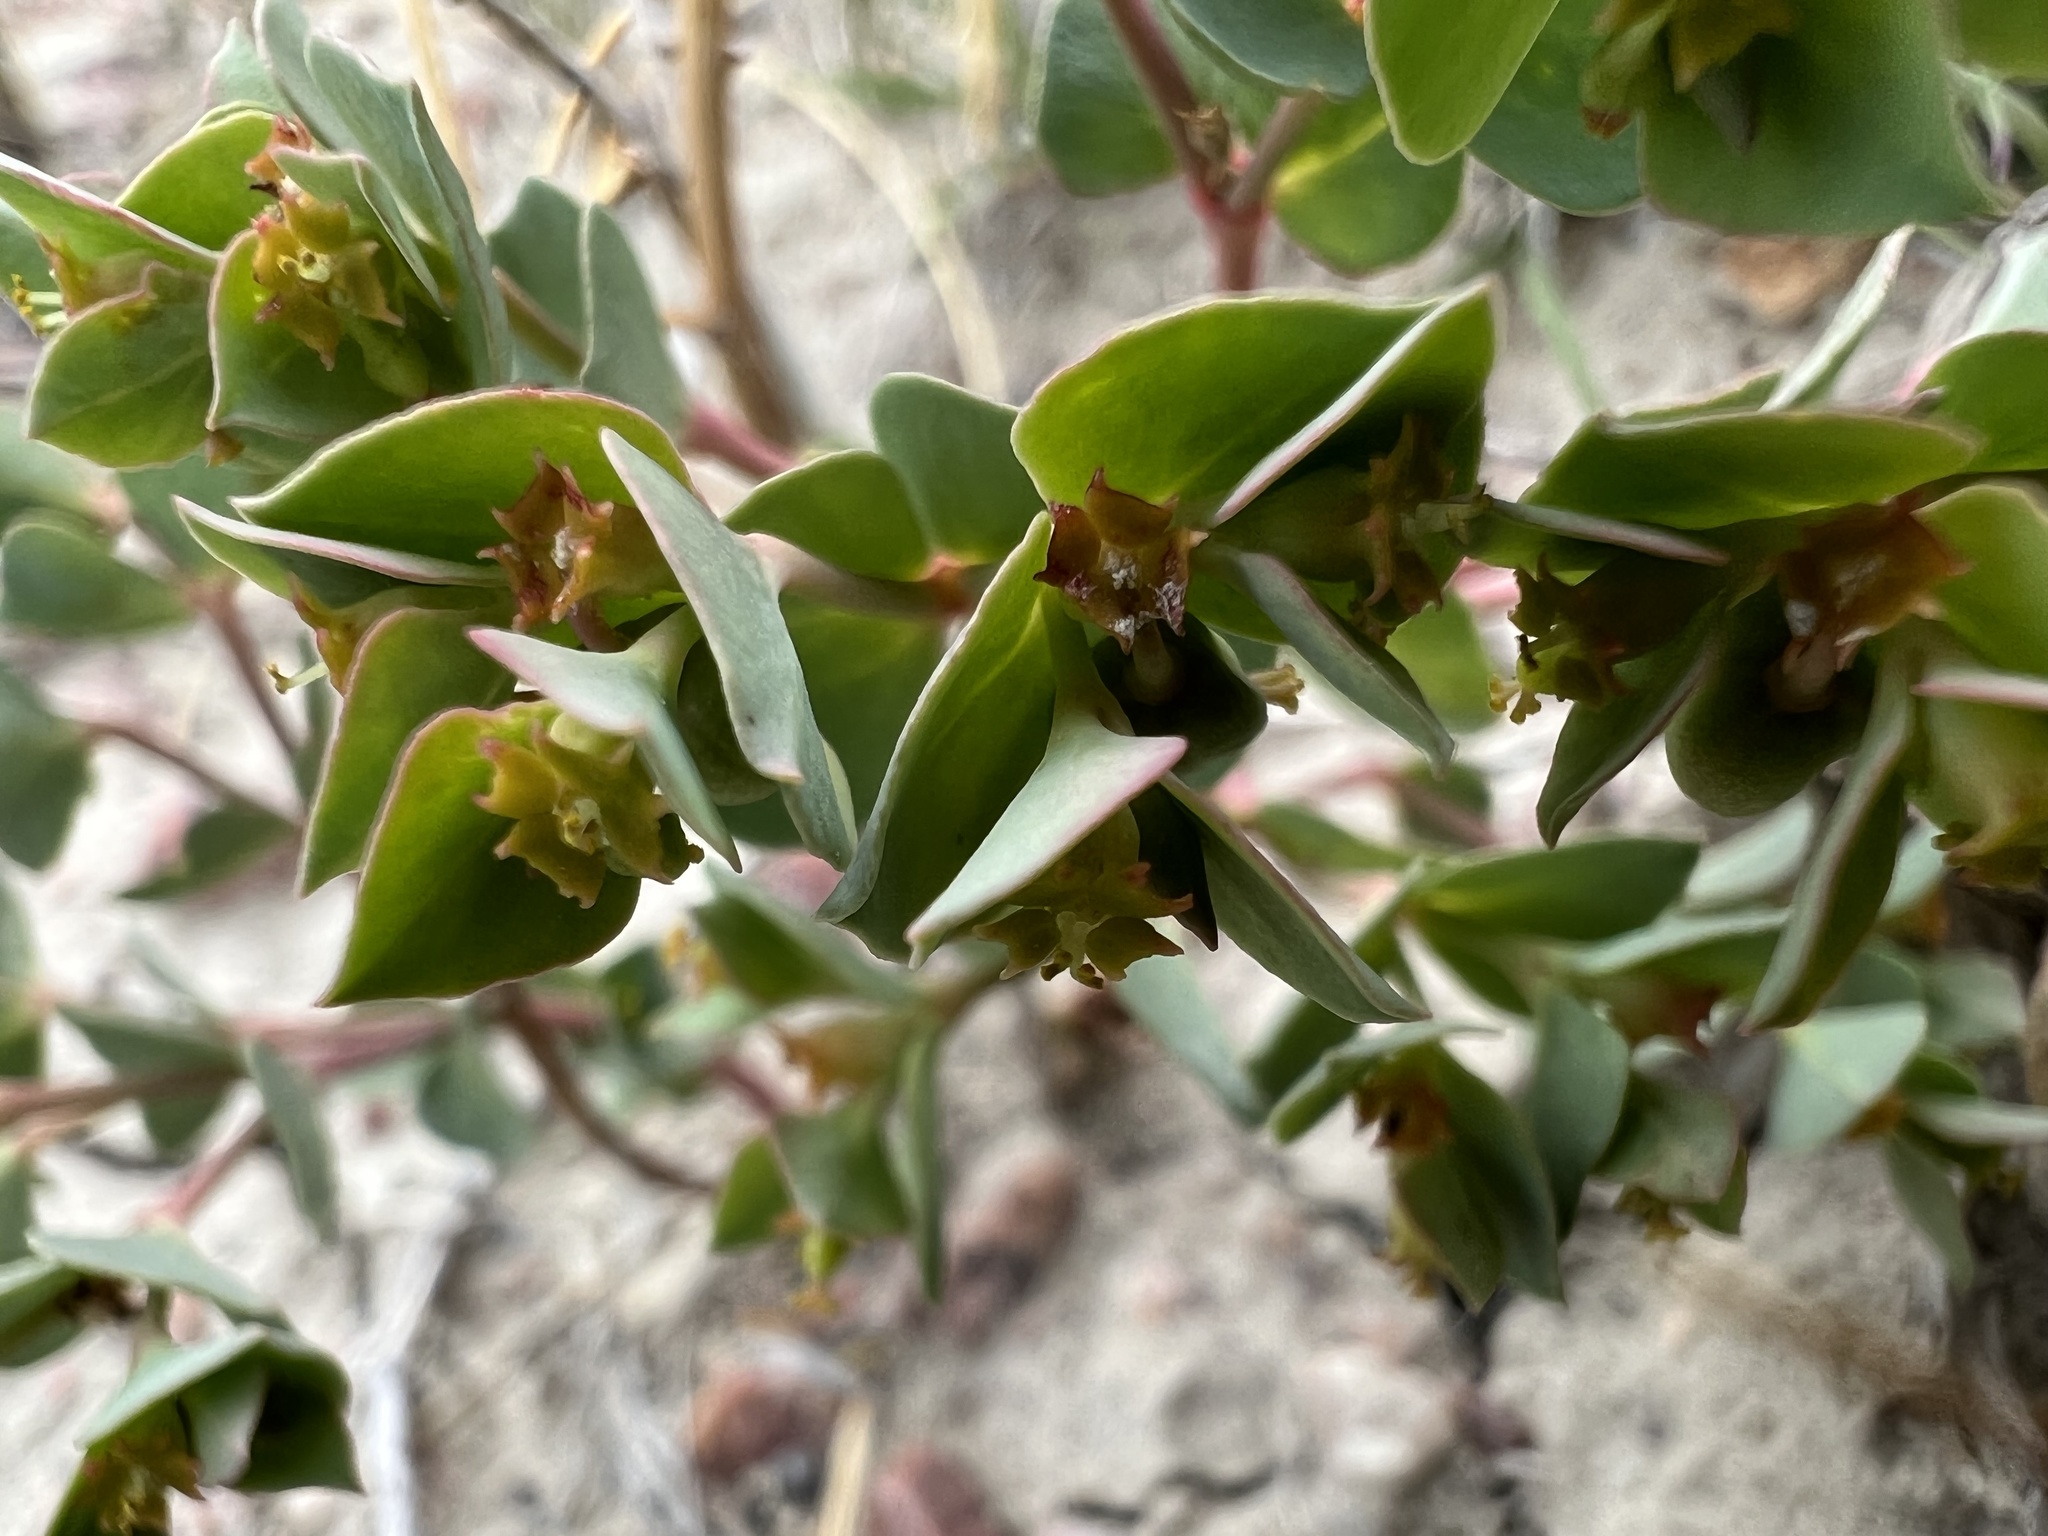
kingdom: Plantae
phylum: Tracheophyta
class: Magnoliopsida
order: Malpighiales
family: Euphorbiaceae
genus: Euphorbia
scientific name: Euphorbia brachycera
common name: Shorthorn spurge
